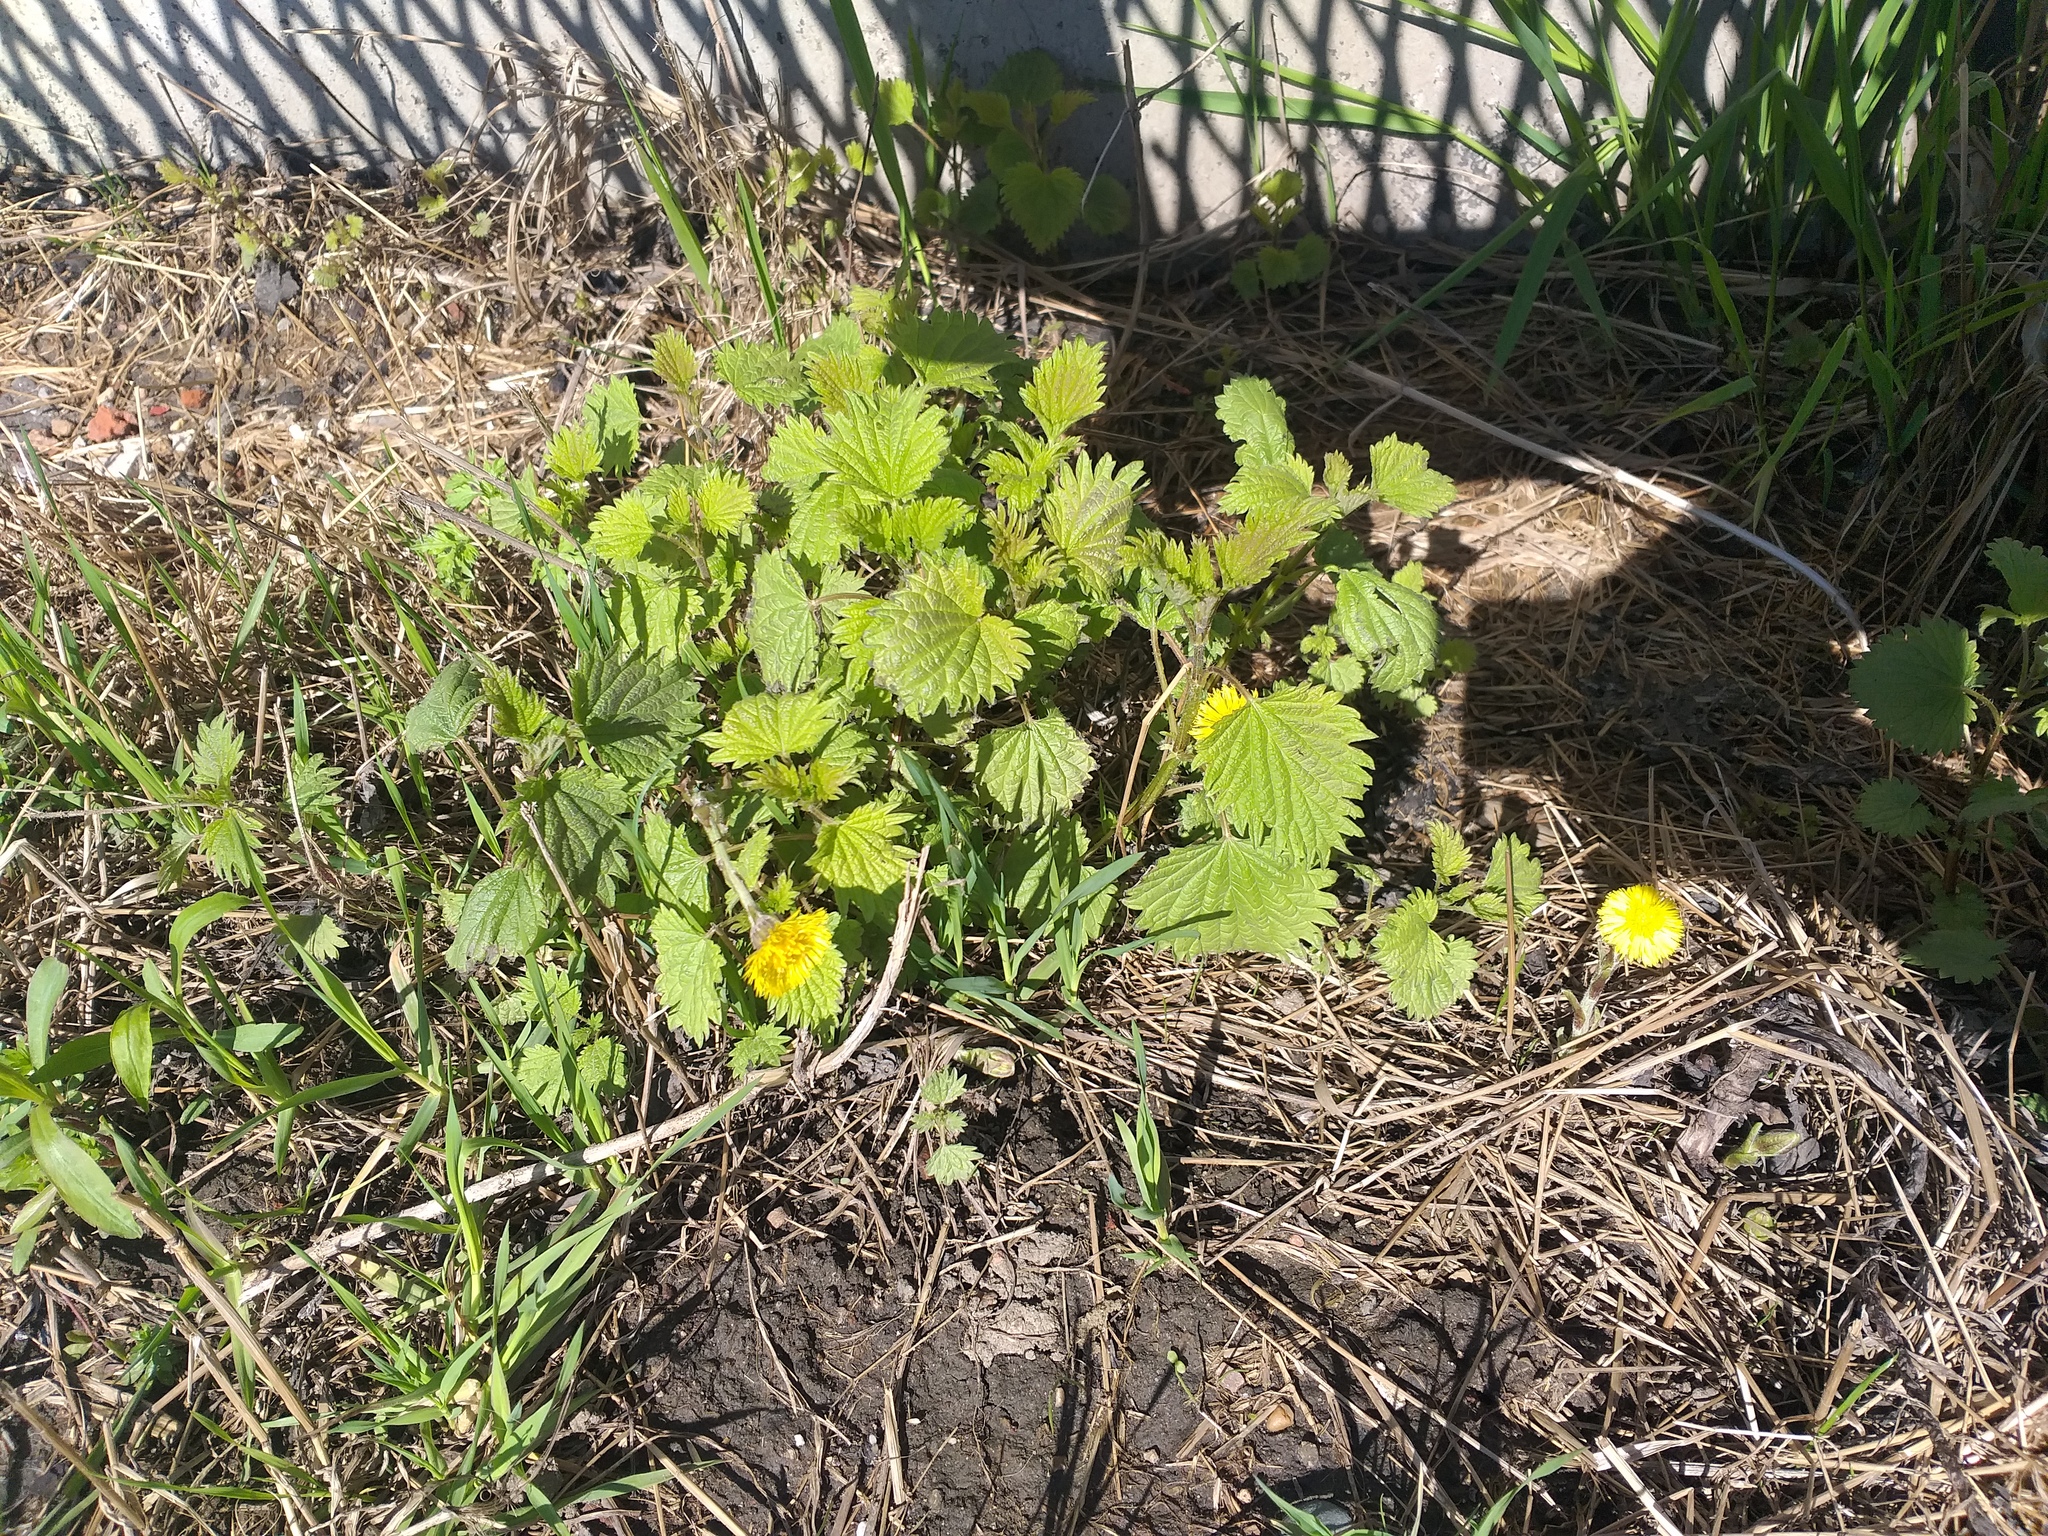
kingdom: Plantae
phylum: Tracheophyta
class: Magnoliopsida
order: Rosales
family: Urticaceae
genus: Urtica
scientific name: Urtica dioica
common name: Common nettle
